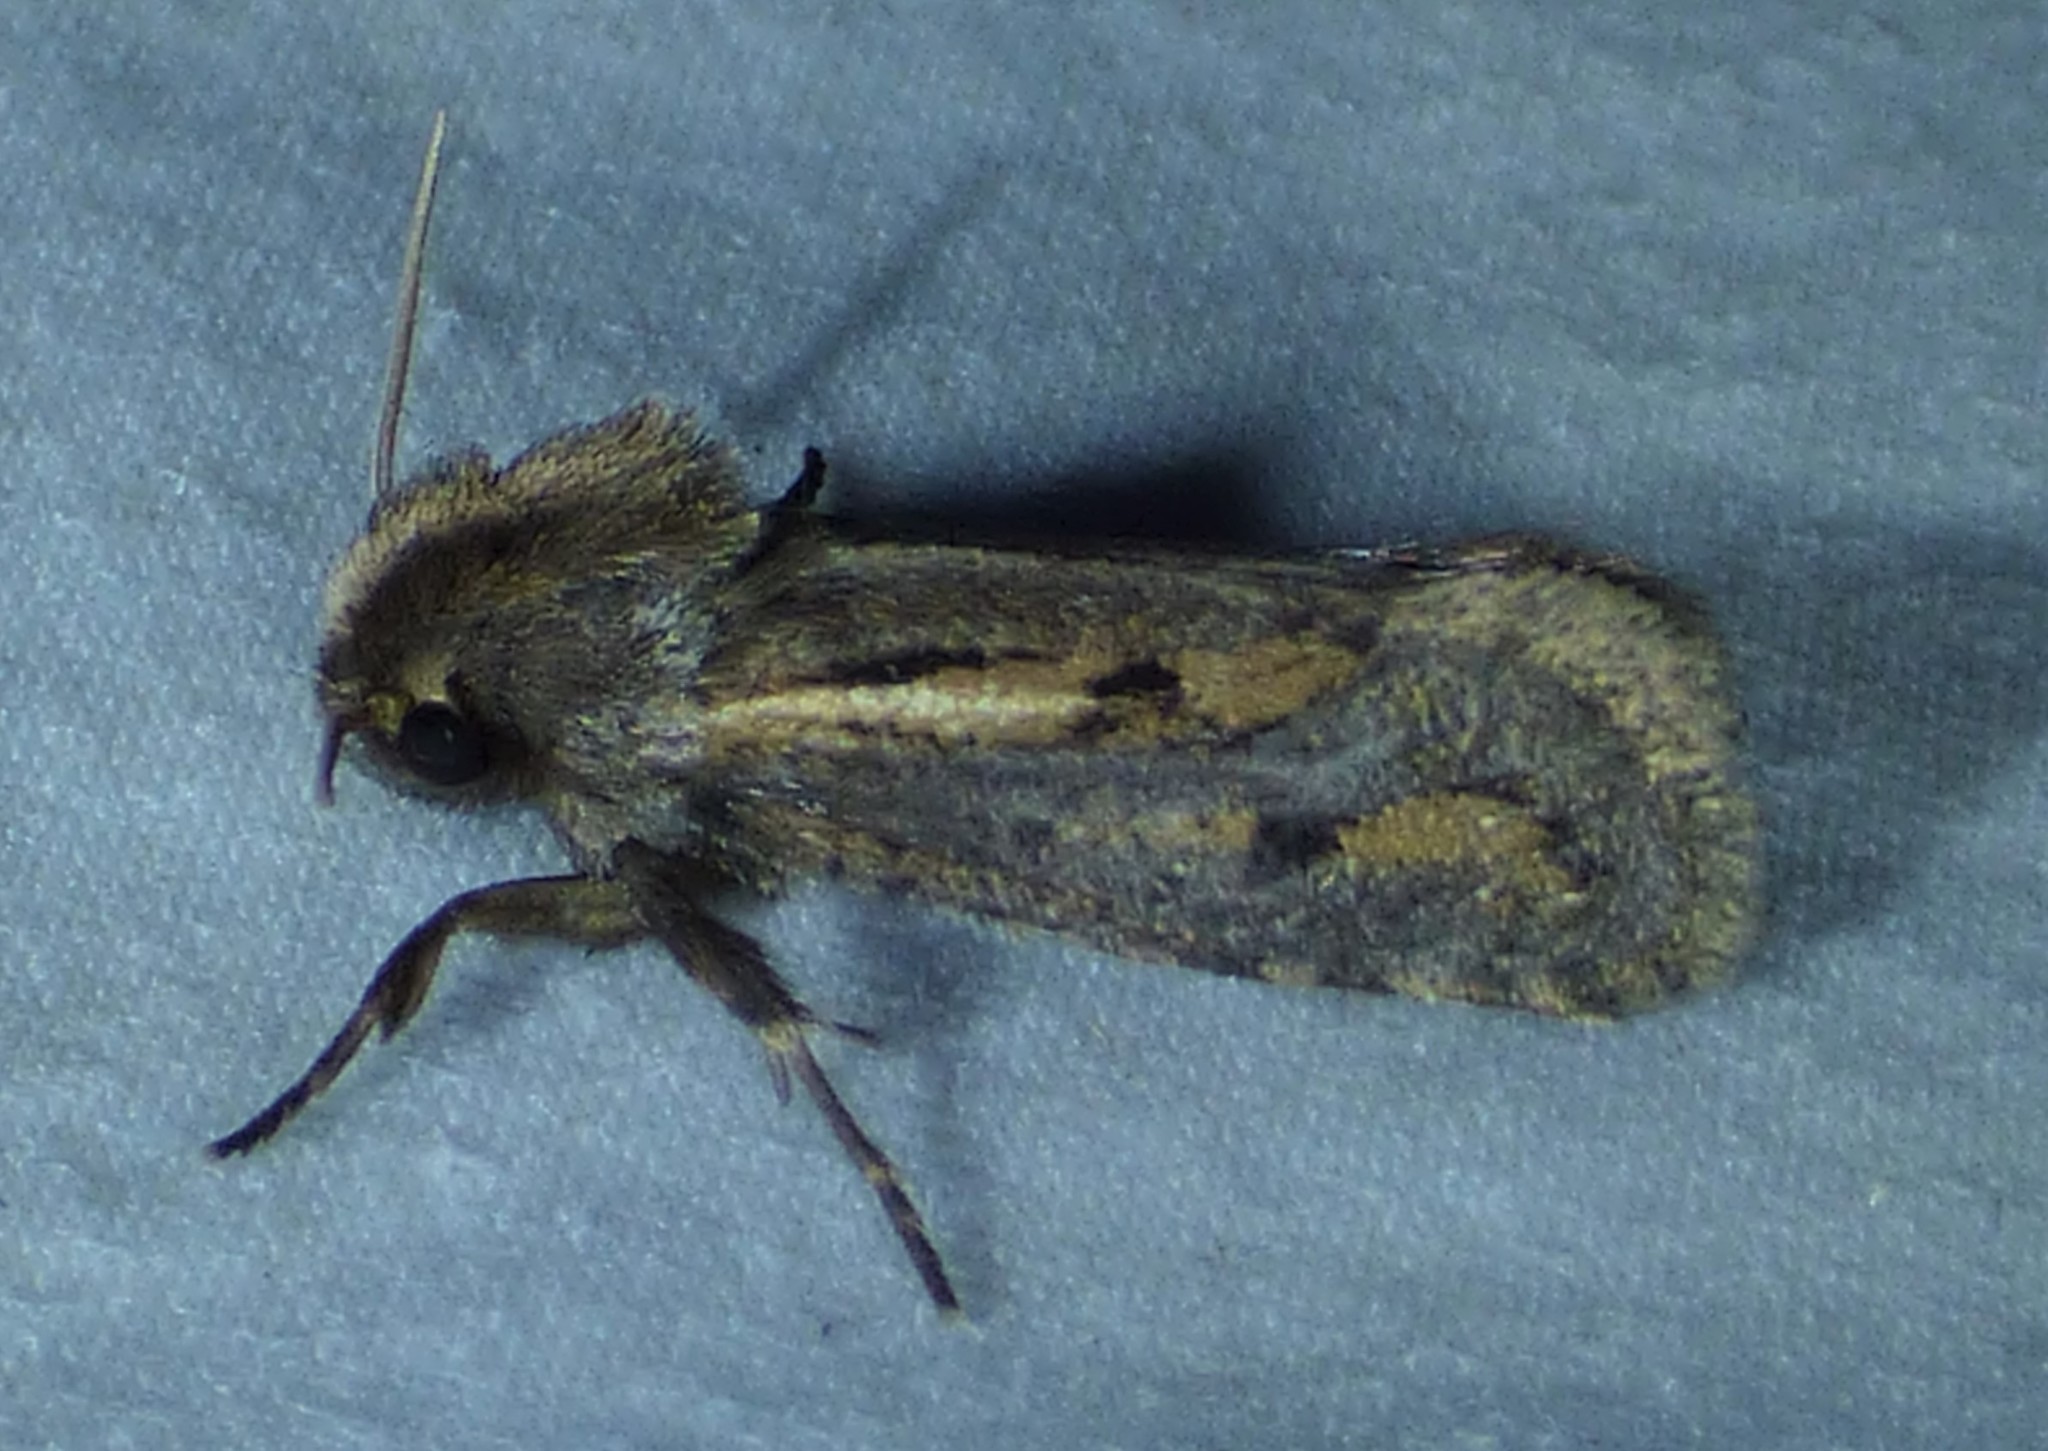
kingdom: Animalia
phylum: Arthropoda
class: Insecta
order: Lepidoptera
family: Tineidae
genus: Acrolophus
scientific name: Acrolophus popeanella
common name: Clemens' grass tubeworm moth
